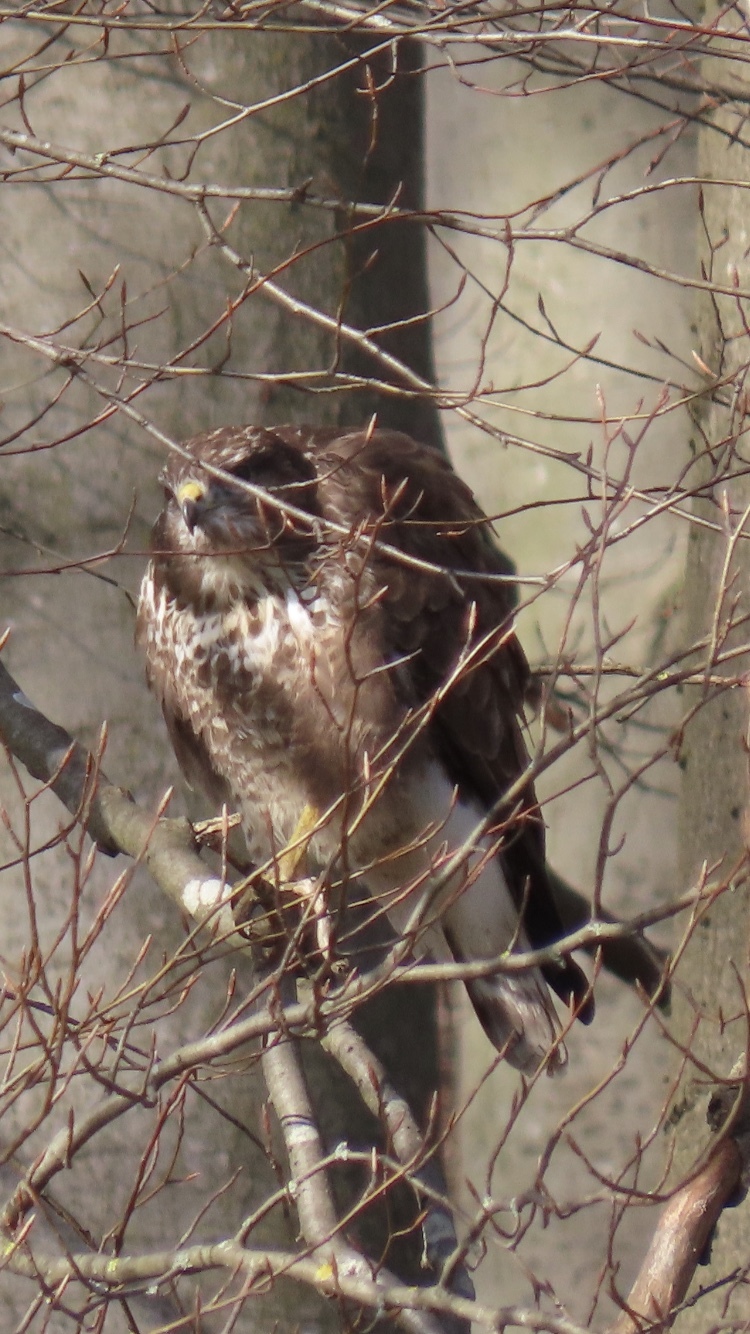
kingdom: Animalia
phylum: Chordata
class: Aves
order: Accipitriformes
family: Accipitridae
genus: Buteo
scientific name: Buteo buteo
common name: Common buzzard
